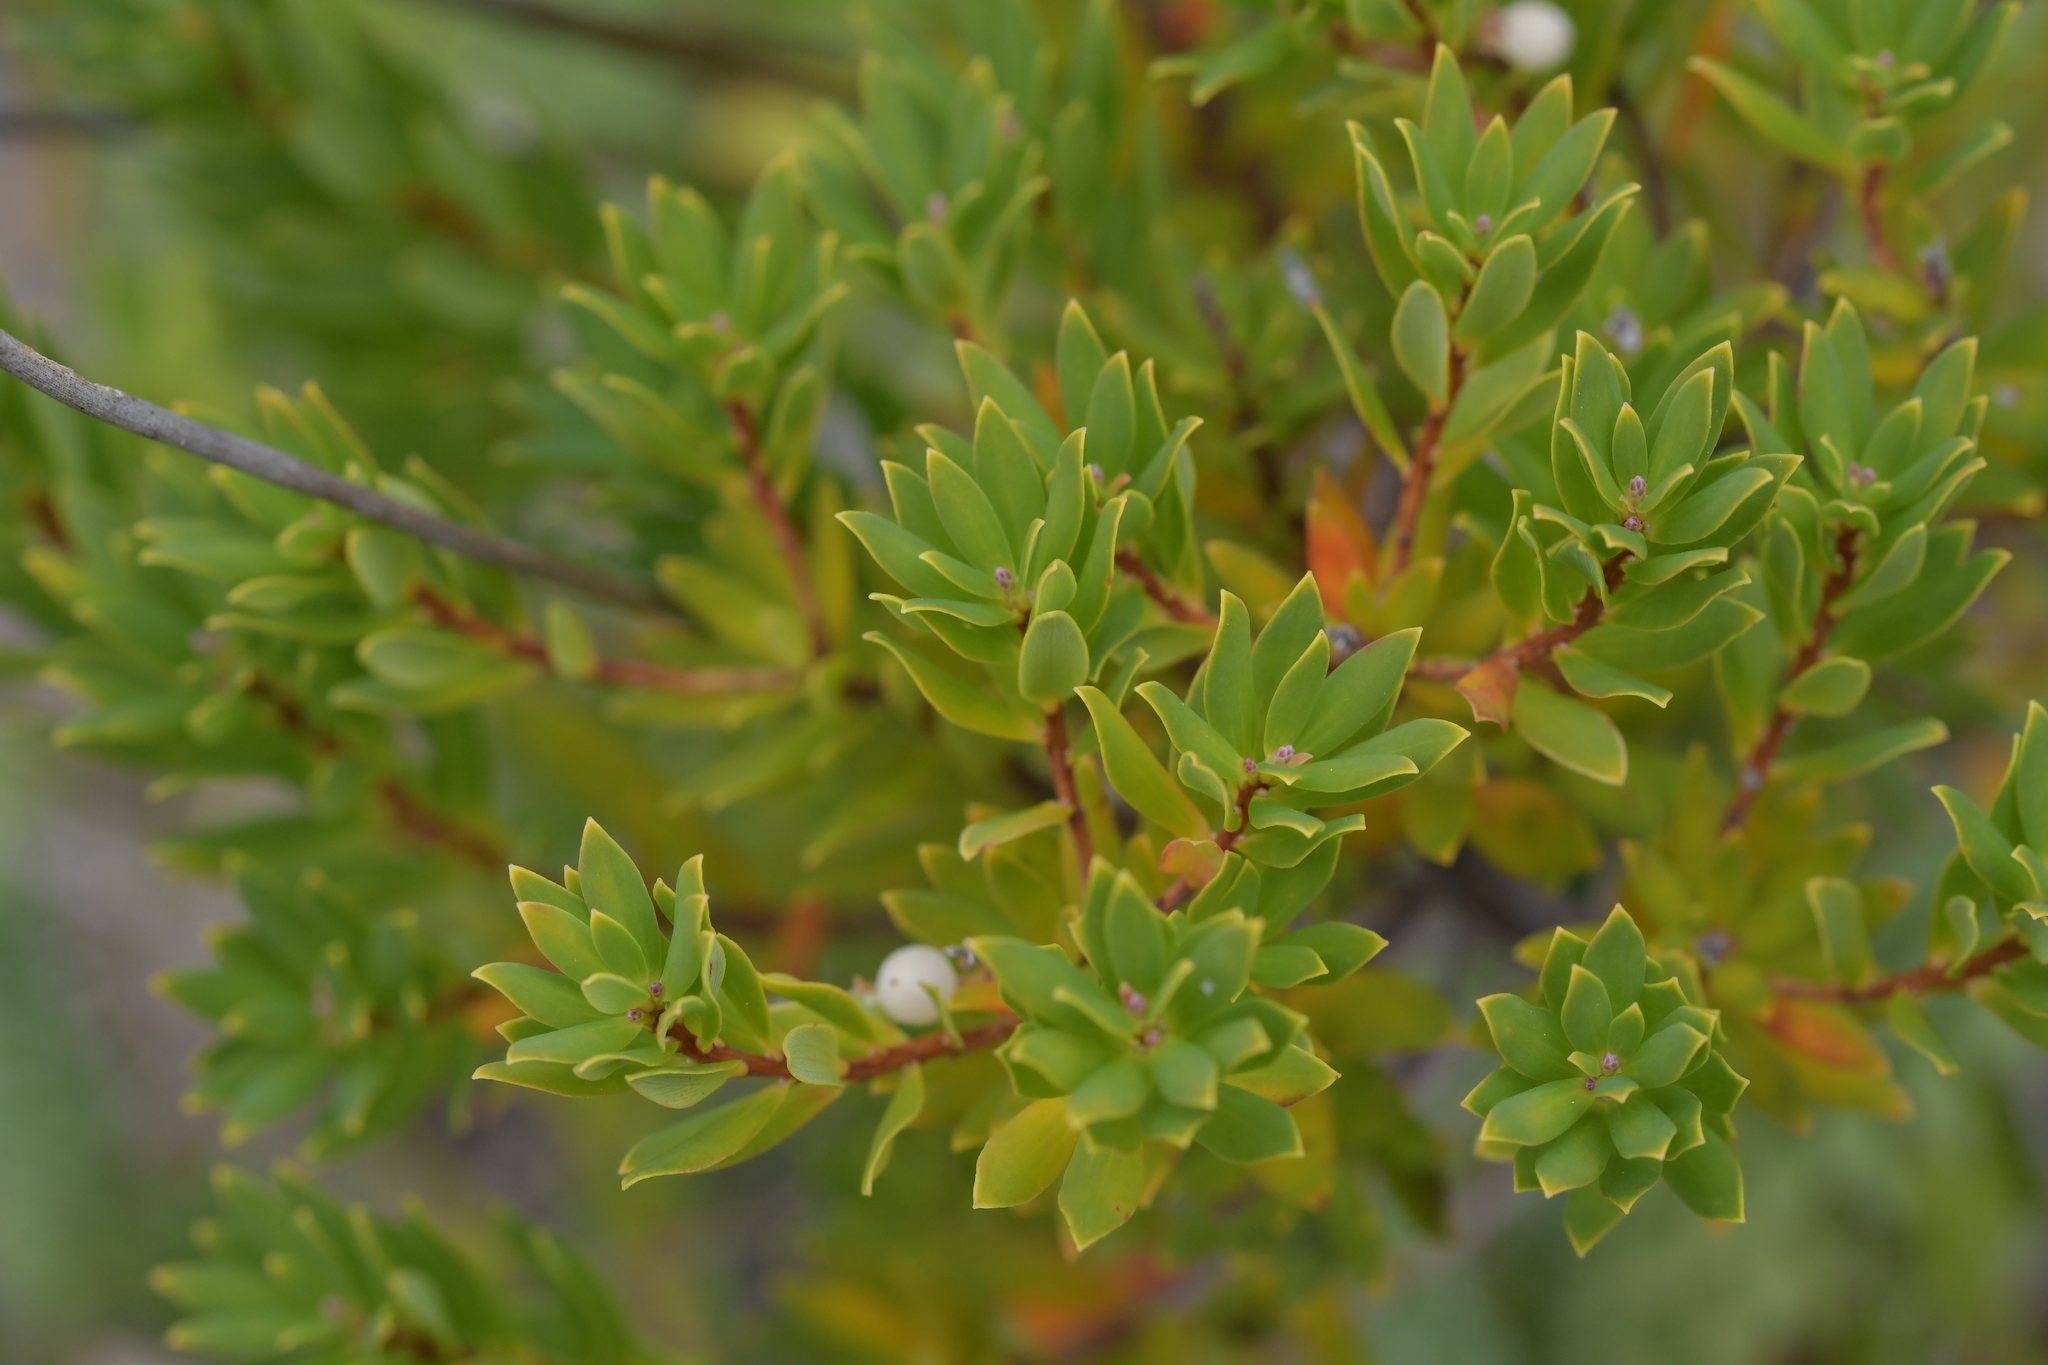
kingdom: Plantae
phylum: Tracheophyta
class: Magnoliopsida
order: Ericales
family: Ericaceae
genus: Leptecophylla
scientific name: Leptecophylla parvifolia
